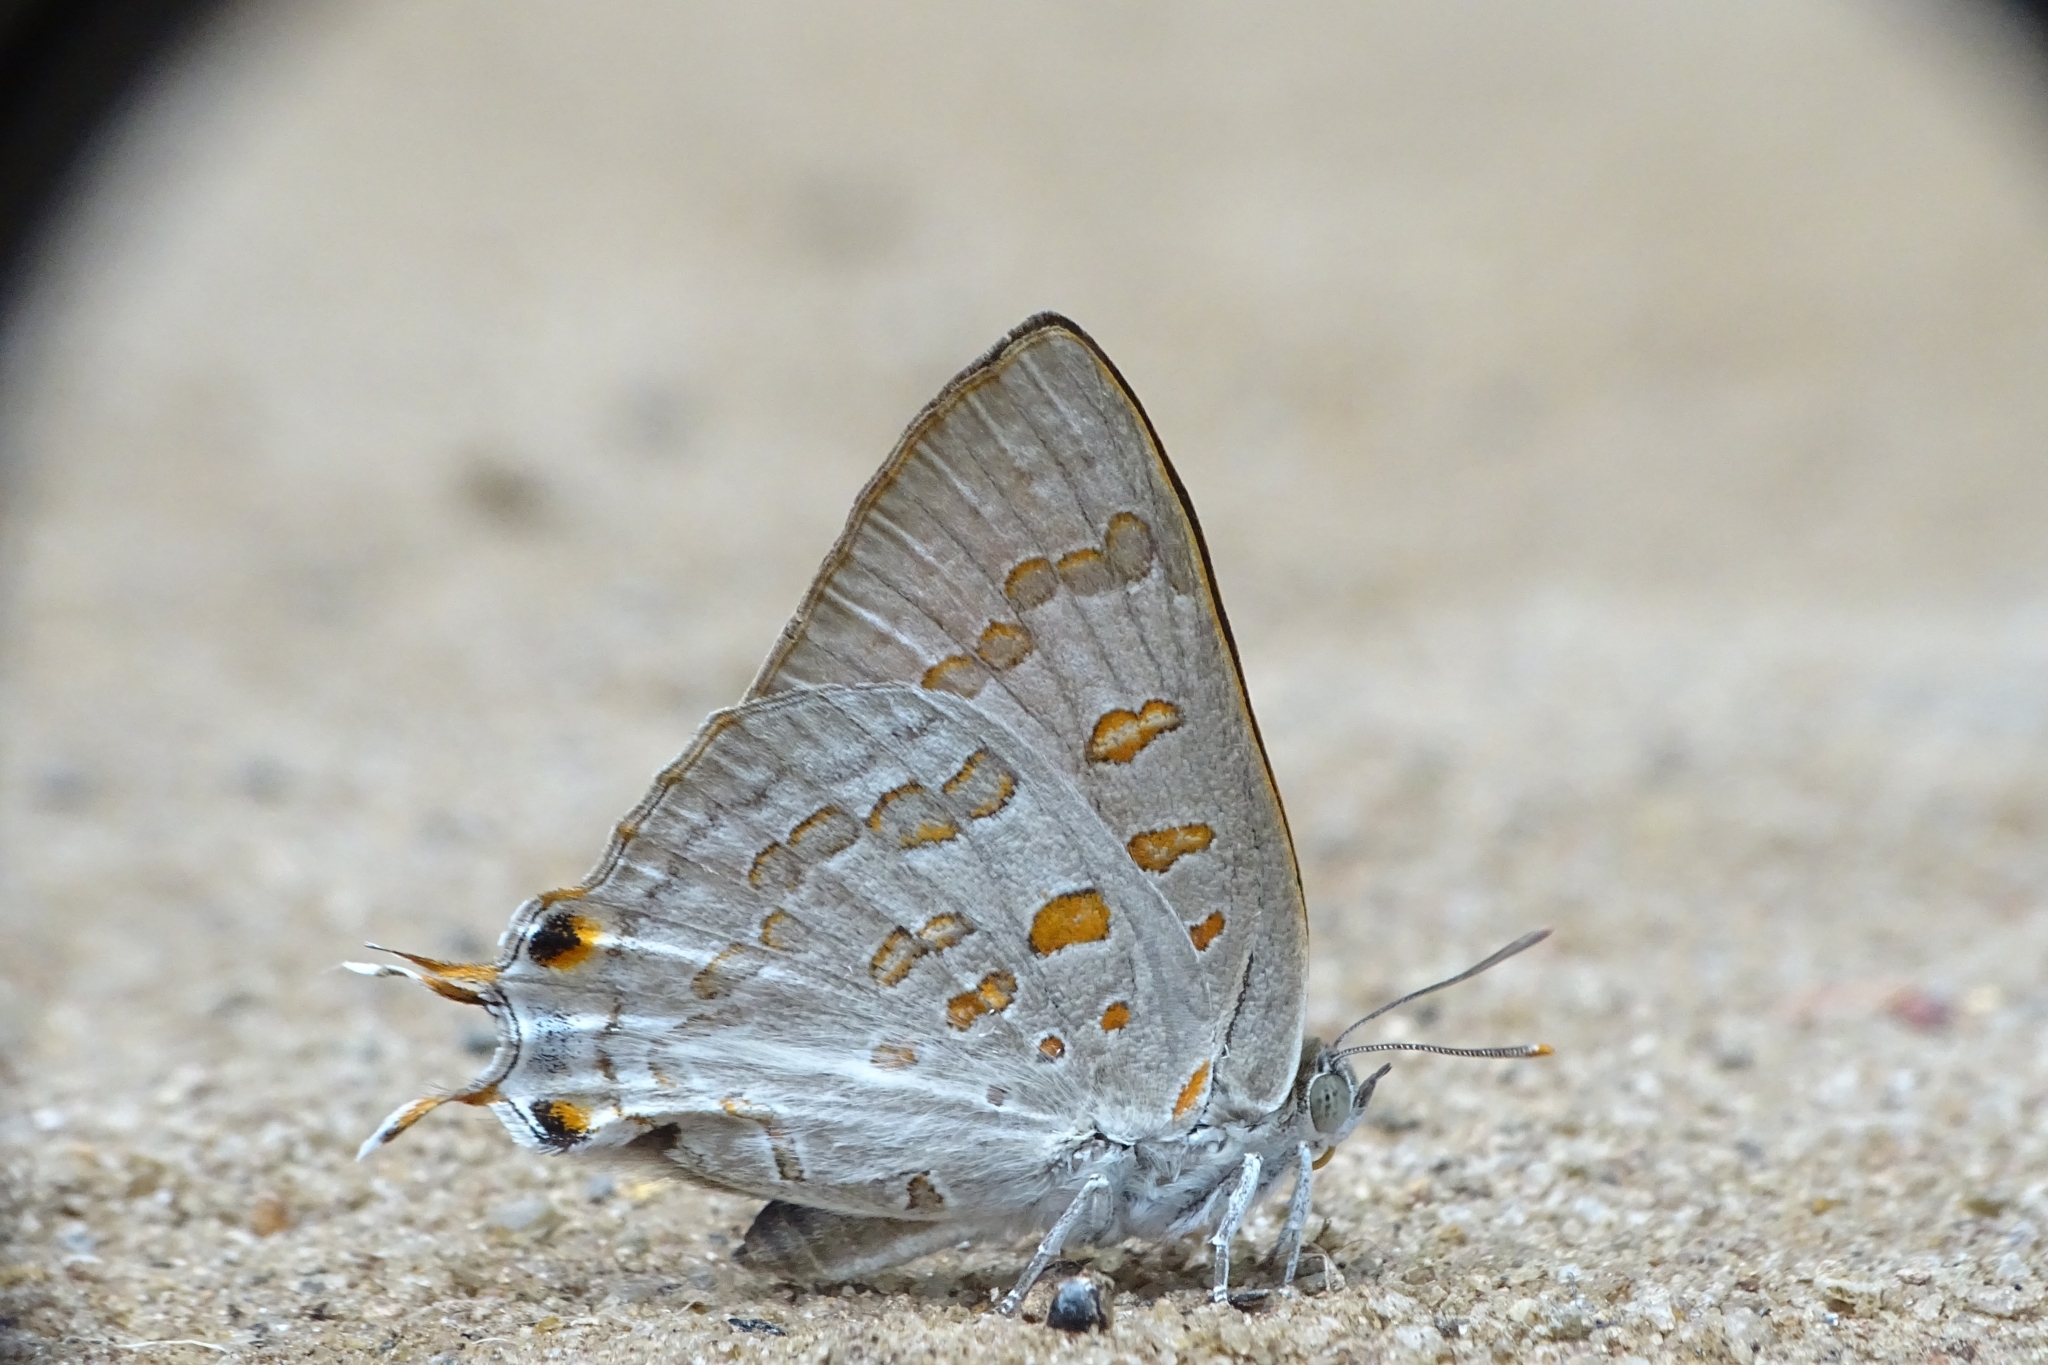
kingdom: Animalia
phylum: Arthropoda
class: Insecta
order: Lepidoptera
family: Lycaenidae
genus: Zesius
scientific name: Zesius chrysomallus
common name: Redspot
